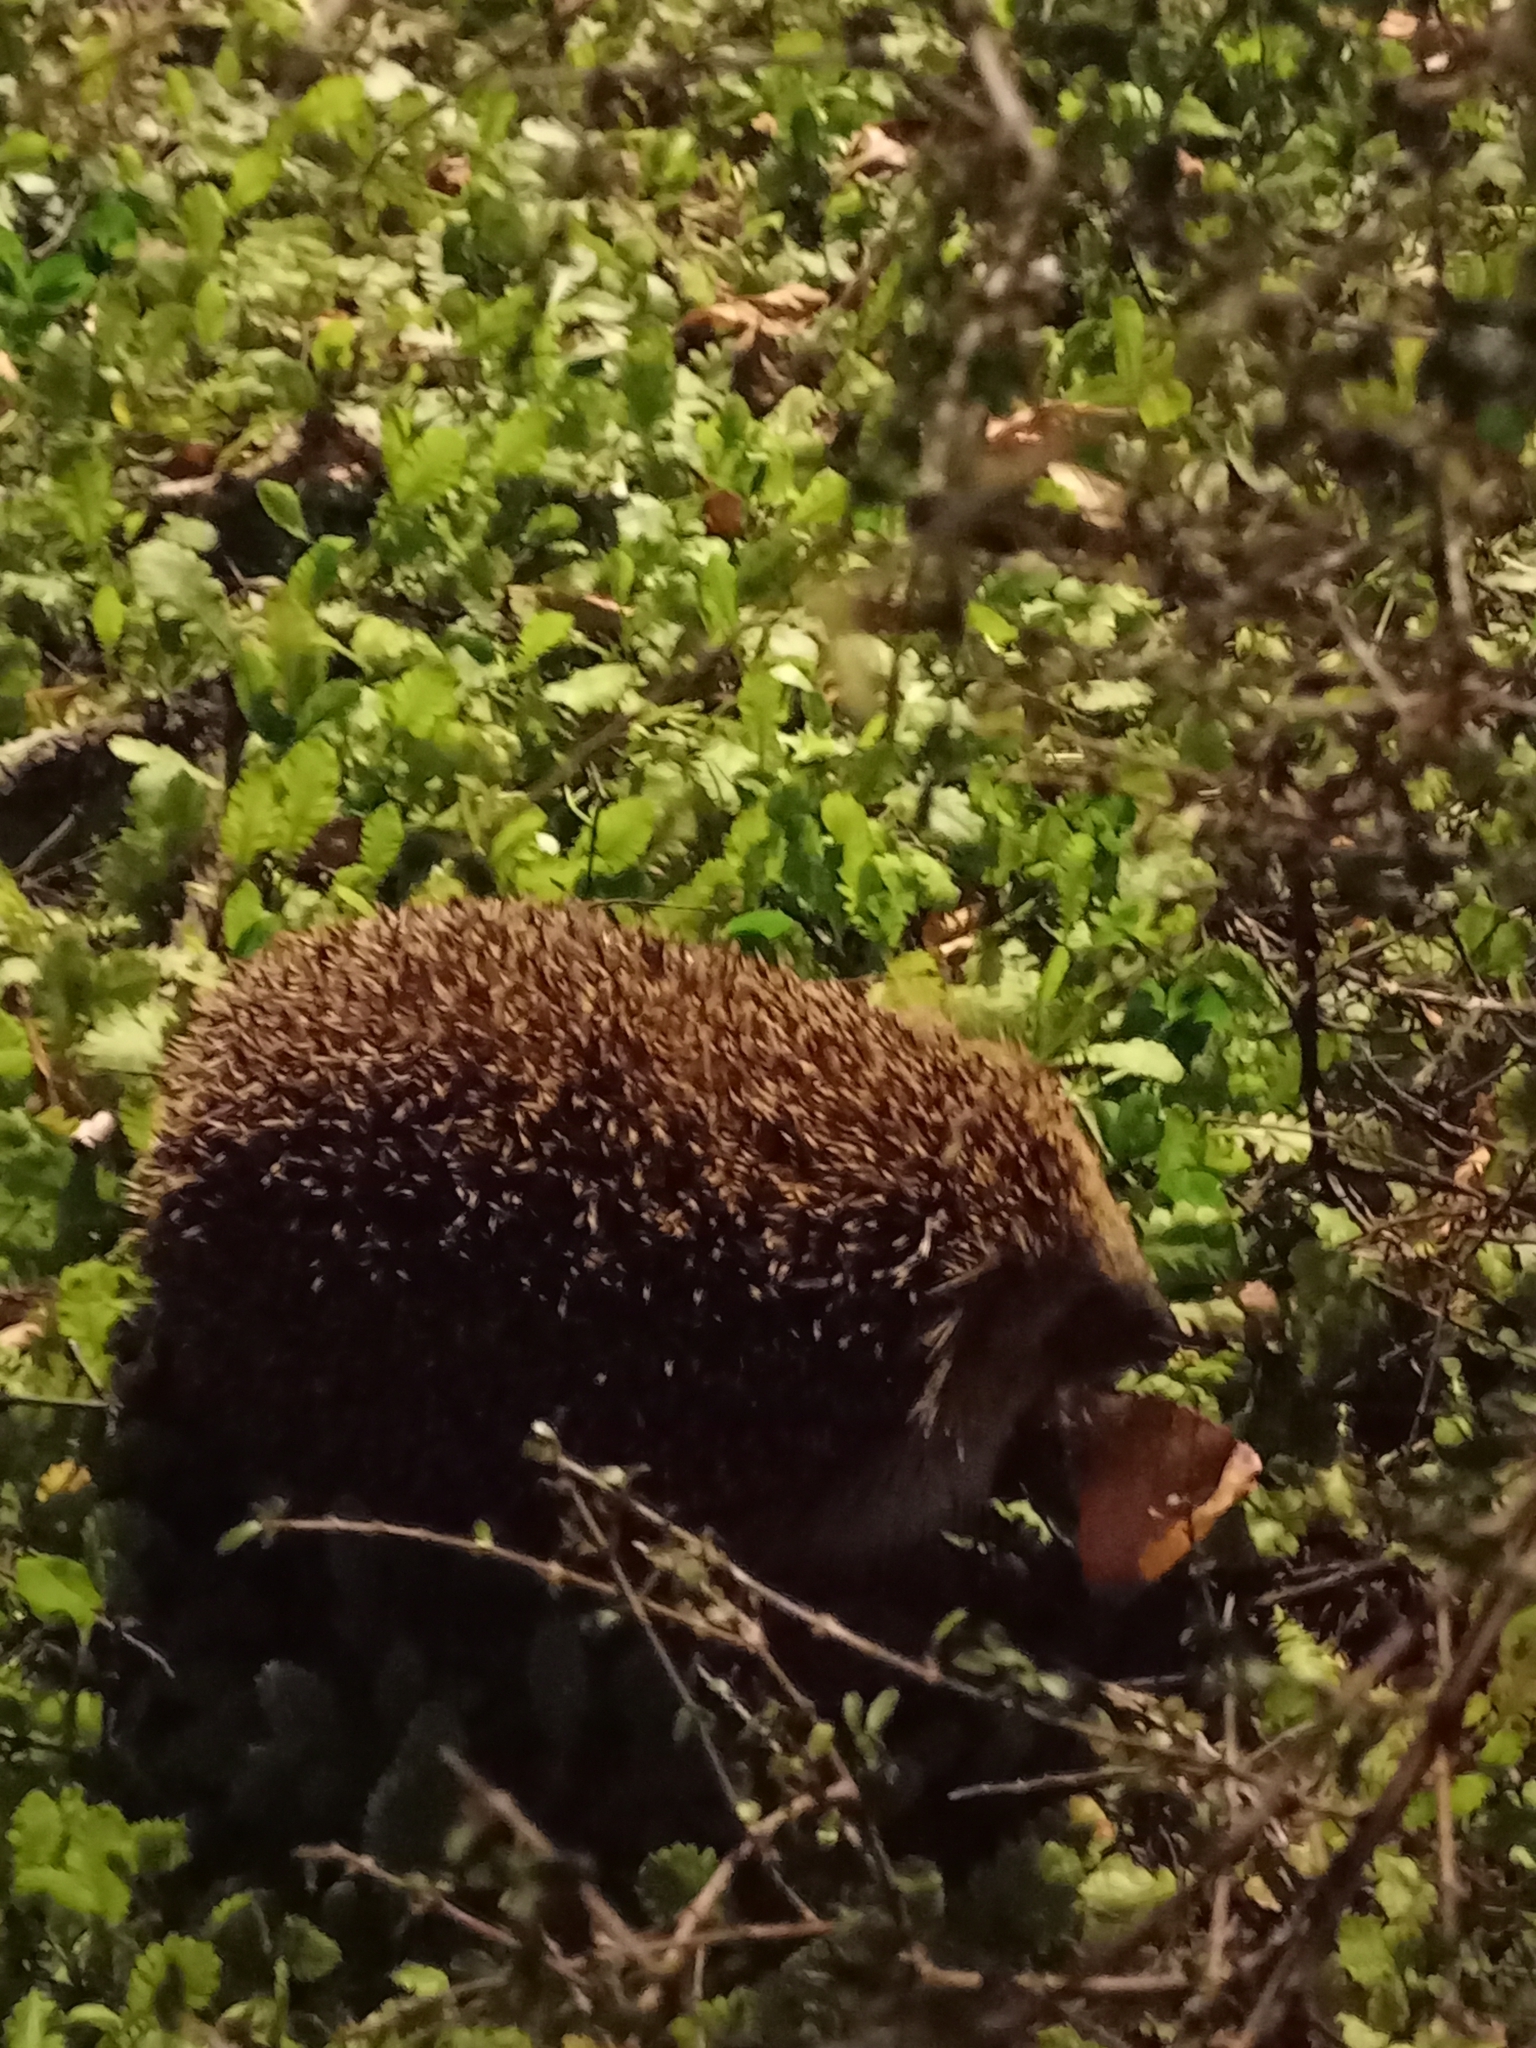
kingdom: Animalia
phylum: Chordata
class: Mammalia
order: Erinaceomorpha
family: Erinaceidae
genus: Erinaceus
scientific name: Erinaceus europaeus
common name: West european hedgehog
